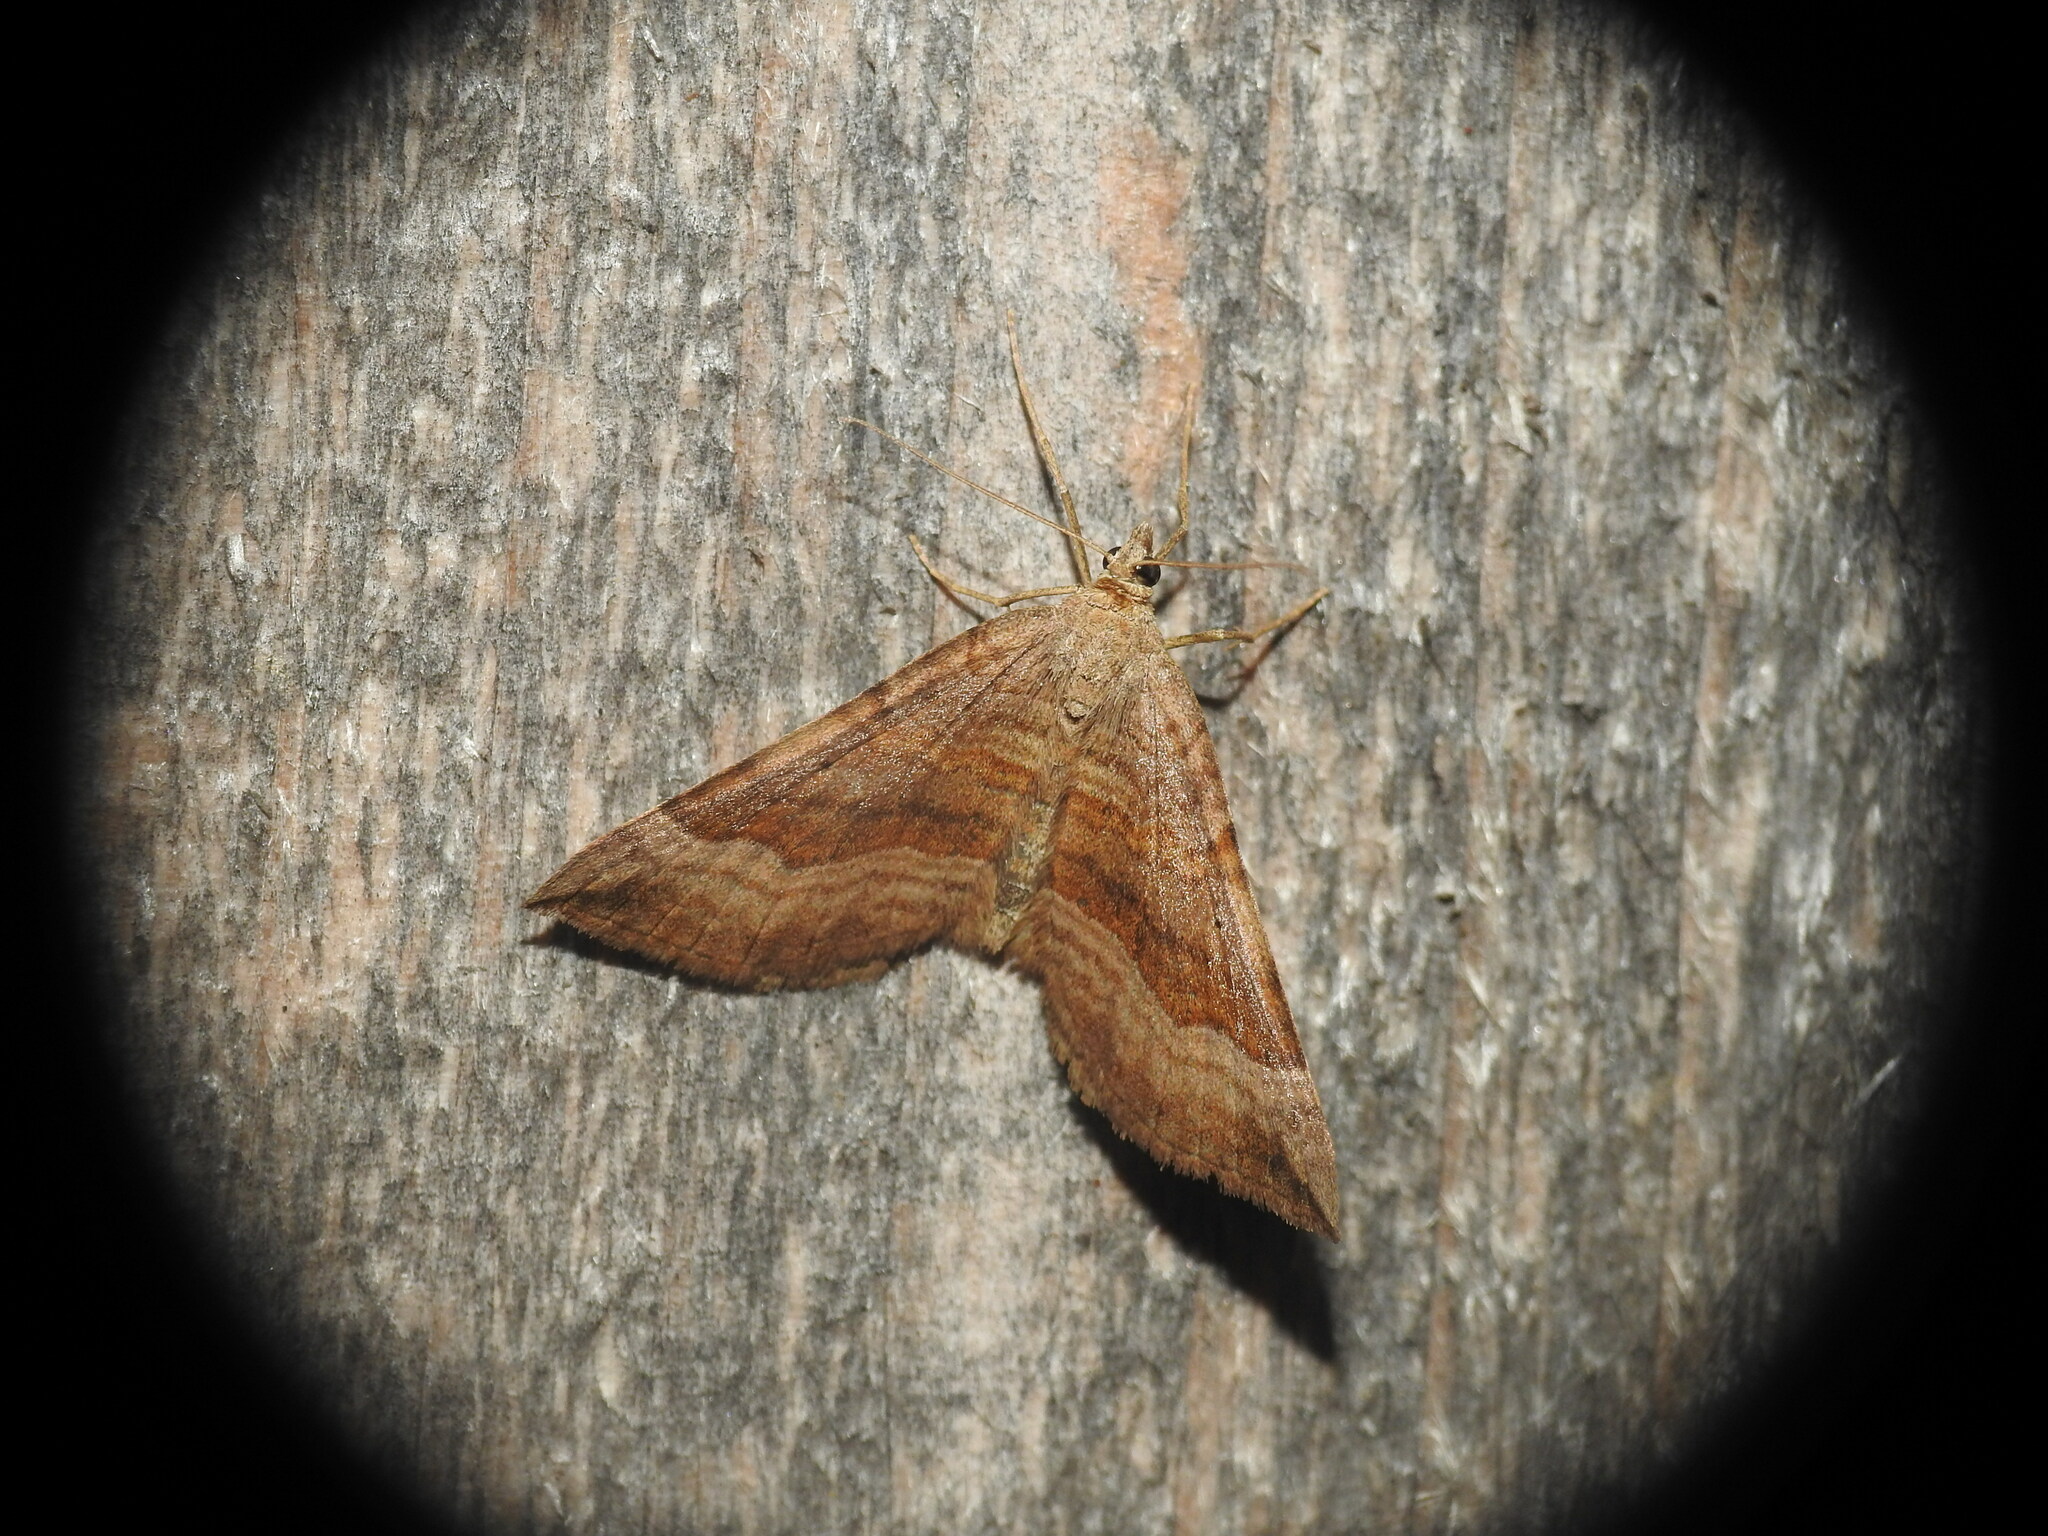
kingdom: Animalia
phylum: Arthropoda
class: Insecta
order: Lepidoptera
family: Geometridae
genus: Scotopteryx
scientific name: Scotopteryx chenopodiata
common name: Shaded broad-bar
